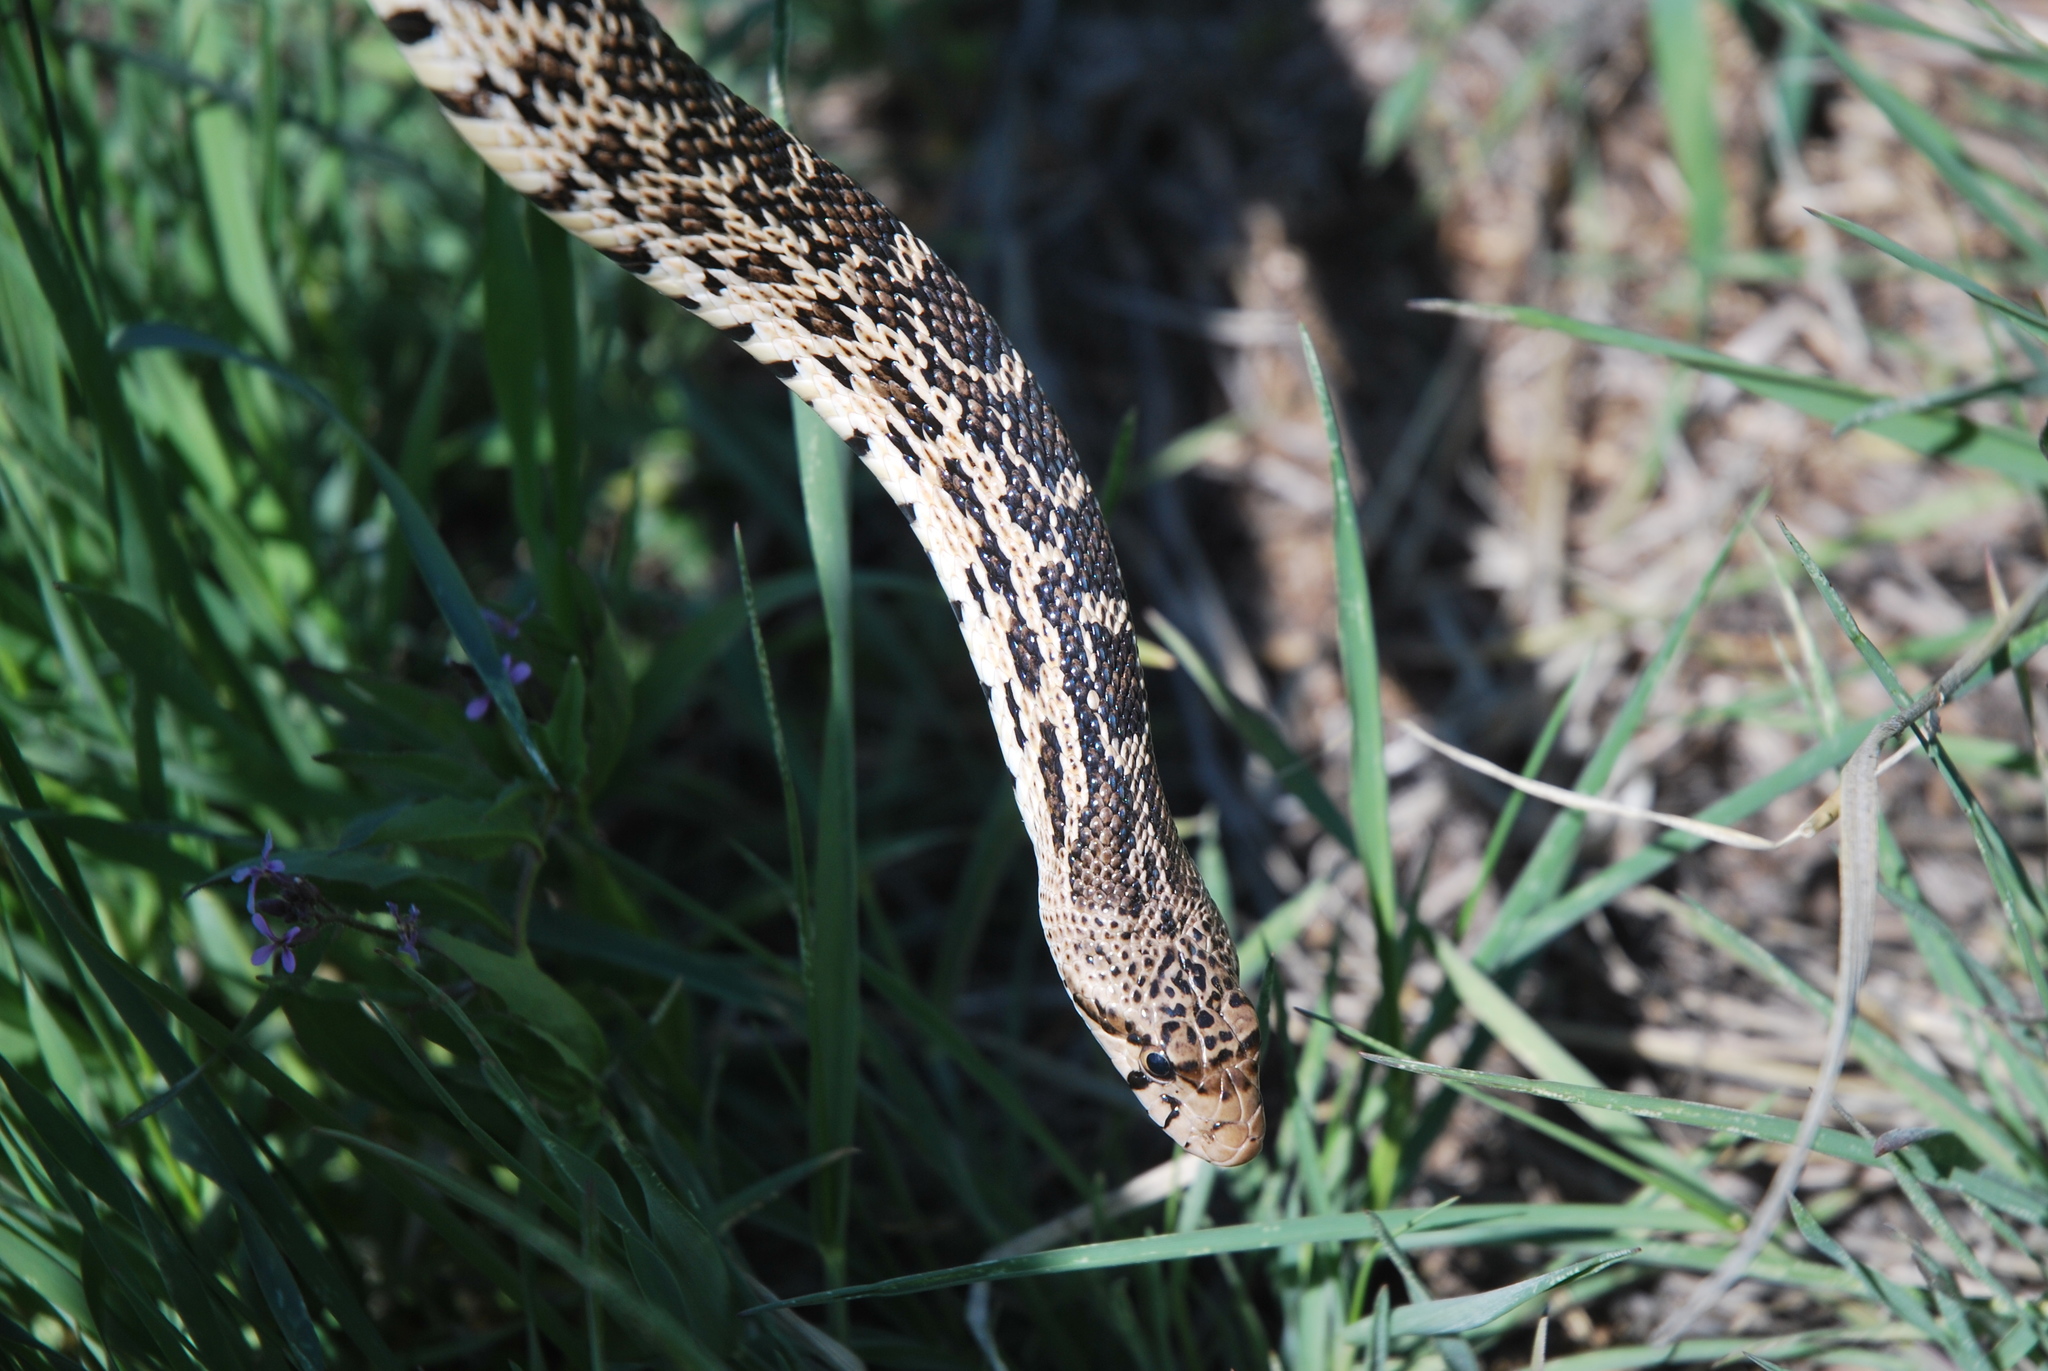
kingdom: Animalia
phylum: Chordata
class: Squamata
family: Colubridae
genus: Pituophis
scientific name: Pituophis catenifer
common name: Gopher snake
